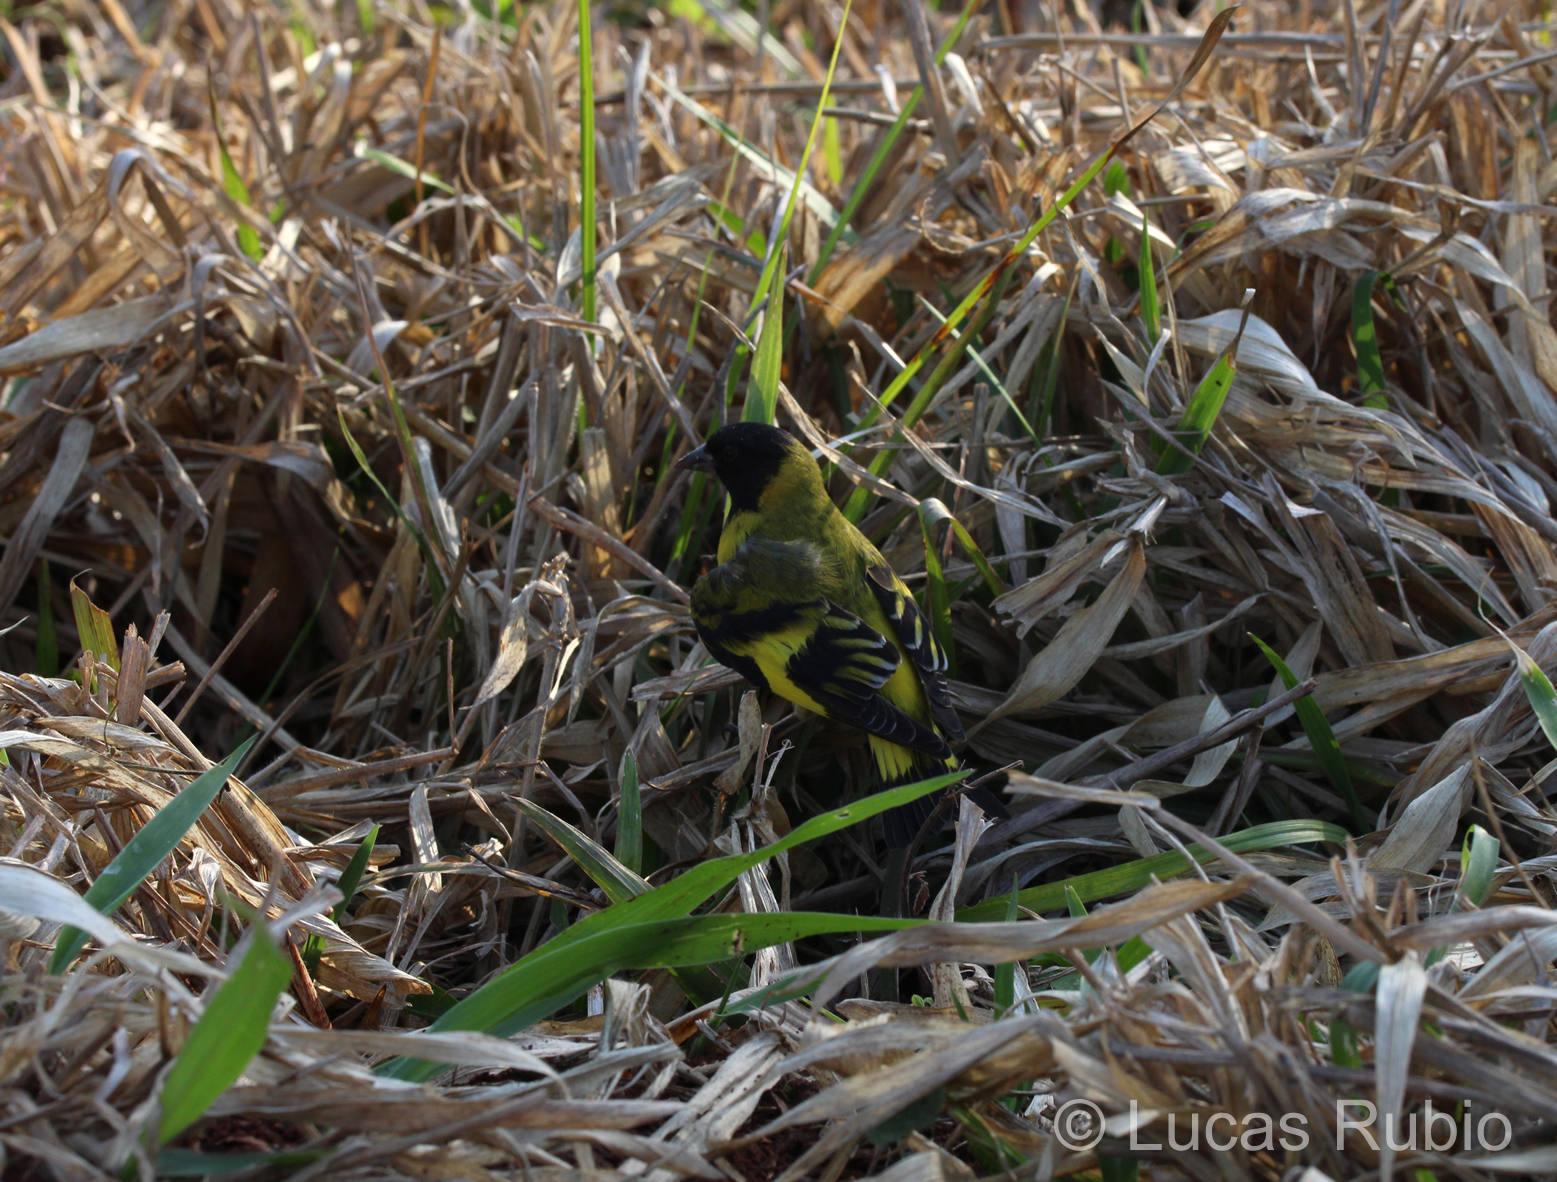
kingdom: Animalia
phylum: Chordata
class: Aves
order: Passeriformes
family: Fringillidae
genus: Spinus
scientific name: Spinus magellanicus
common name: Hooded siskin
